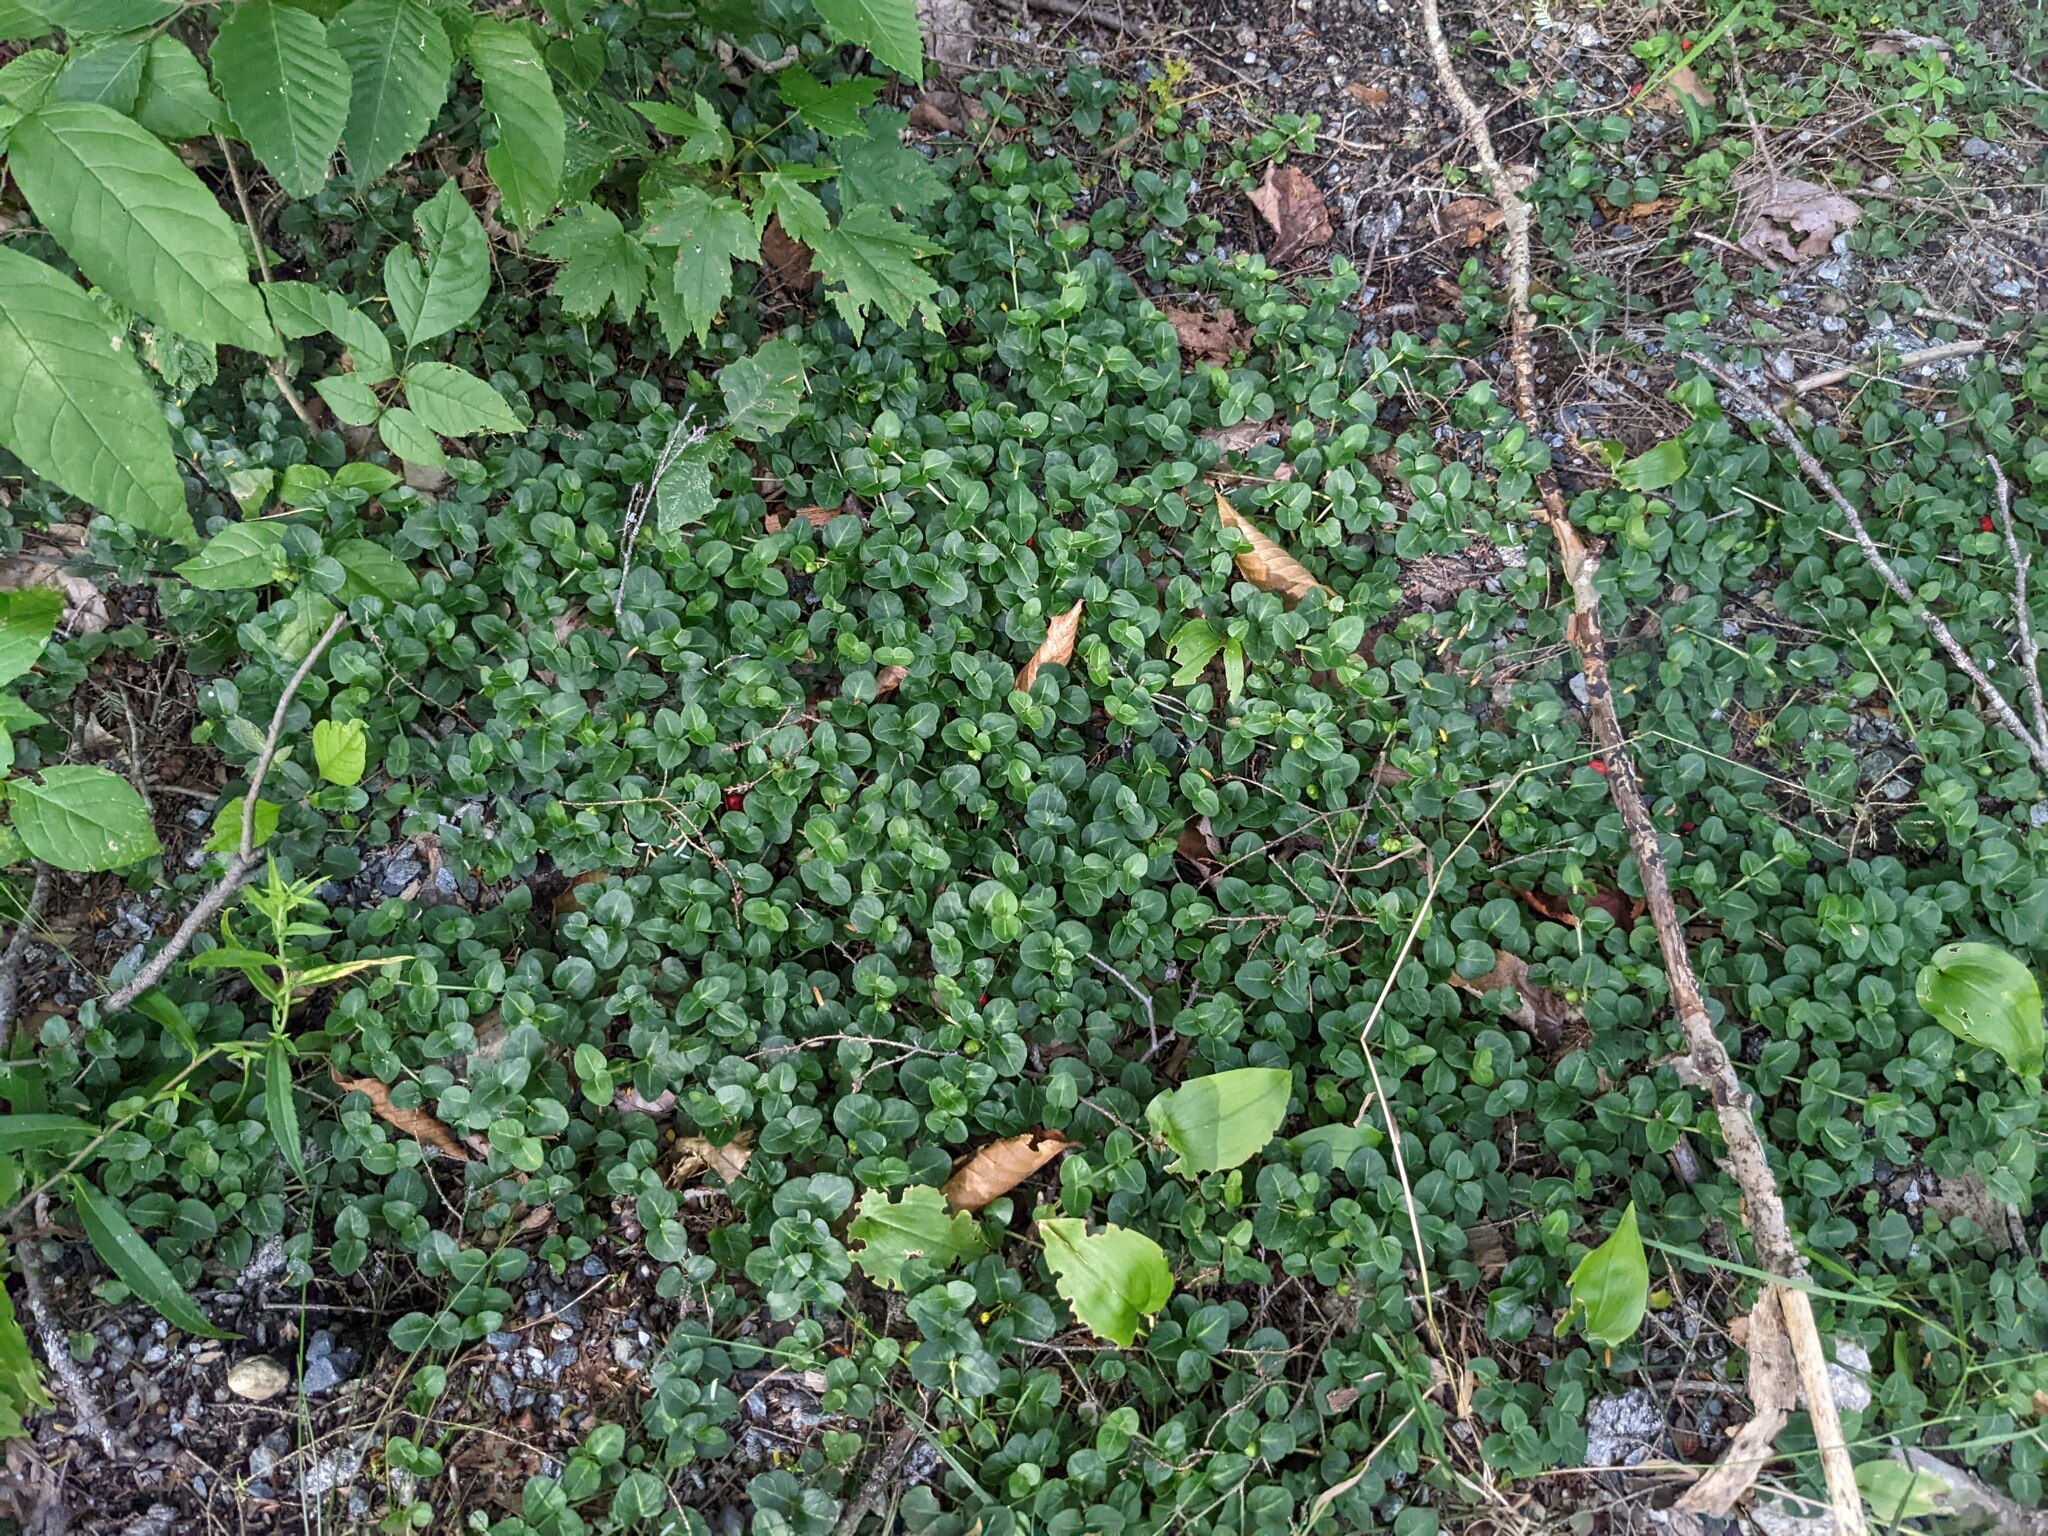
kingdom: Plantae
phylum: Tracheophyta
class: Magnoliopsida
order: Gentianales
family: Rubiaceae
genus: Mitchella
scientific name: Mitchella repens
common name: Partridge-berry
